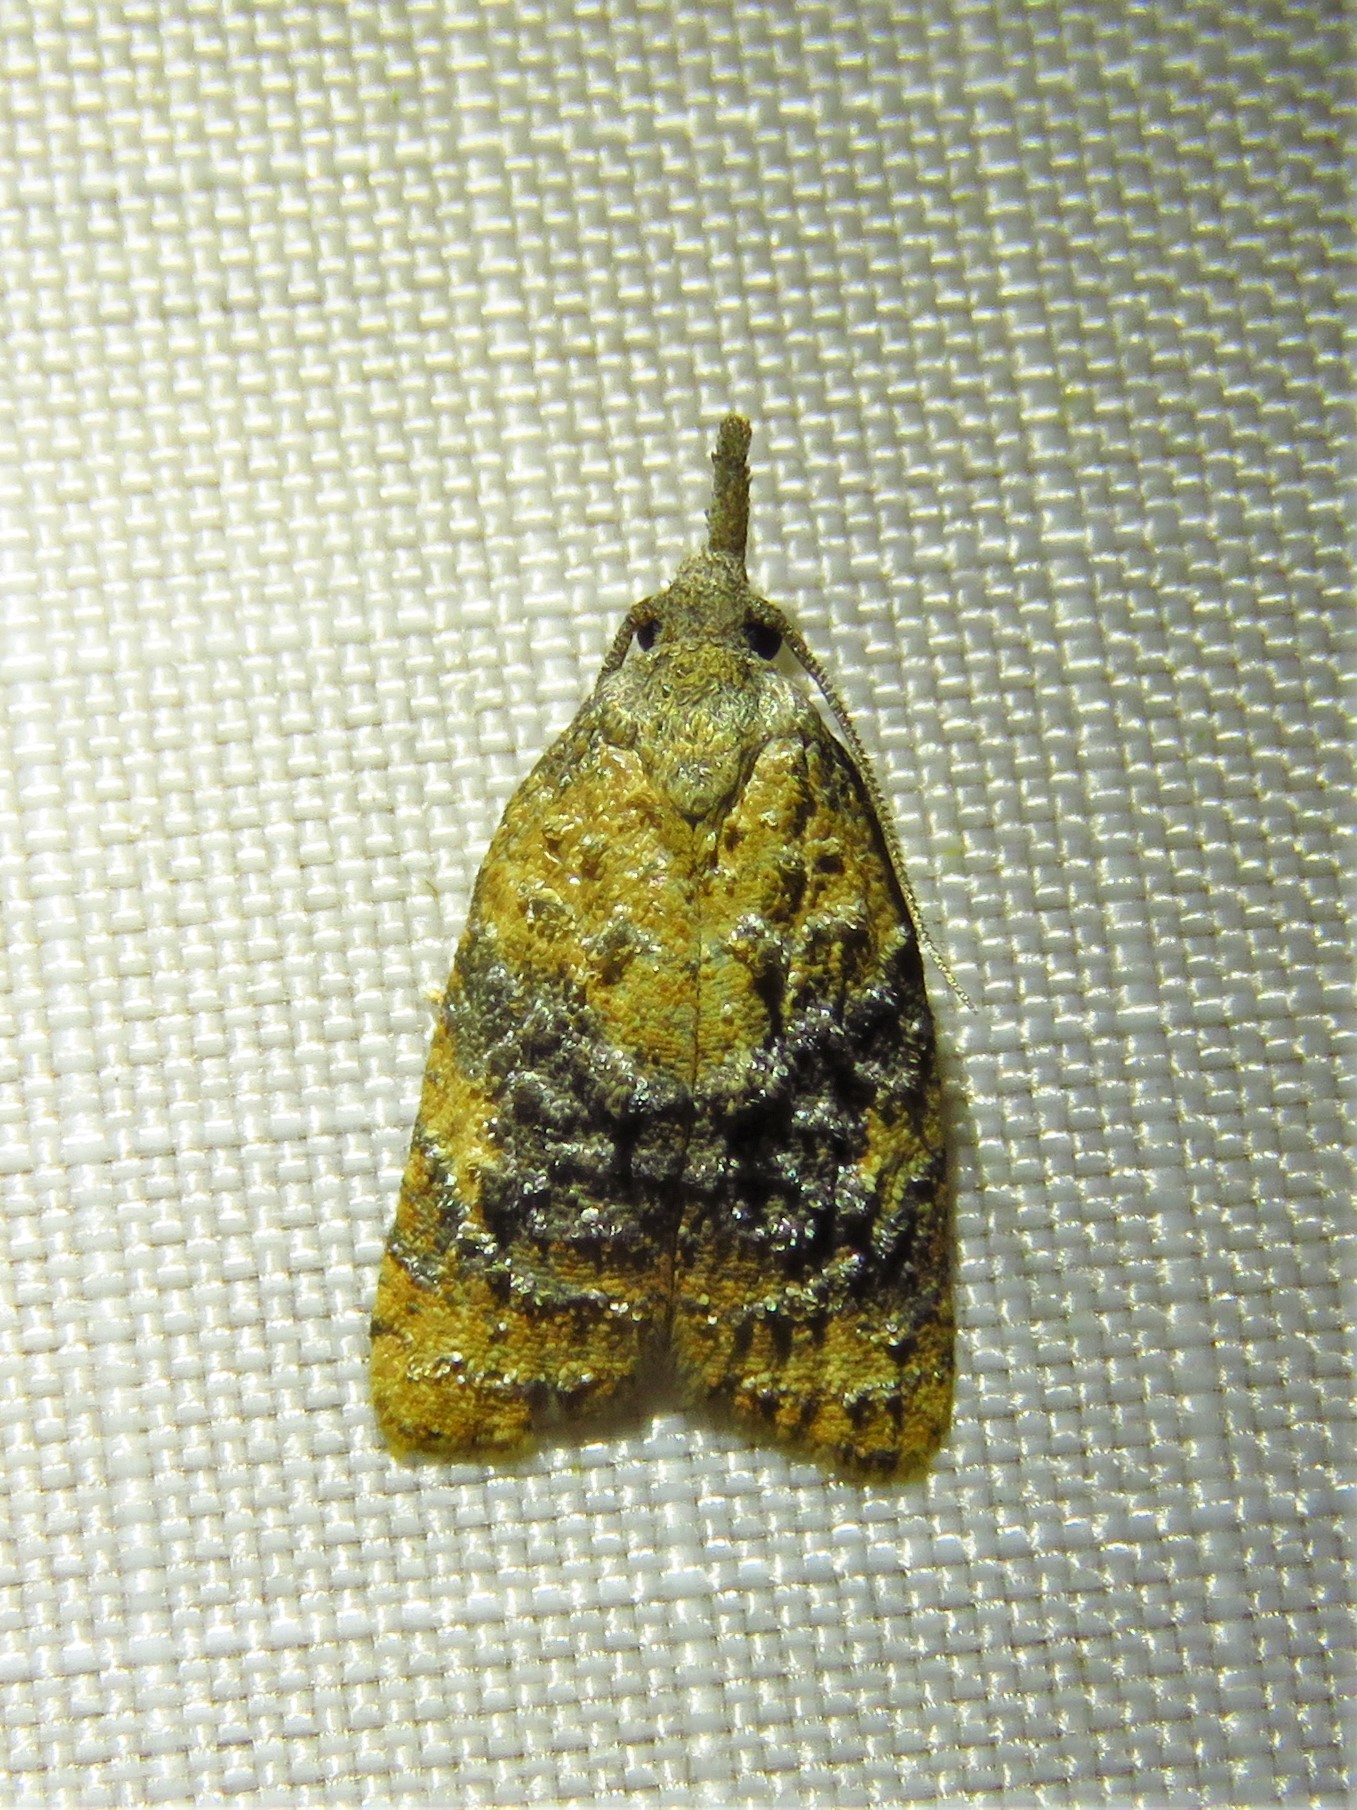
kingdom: Animalia
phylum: Arthropoda
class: Insecta
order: Lepidoptera
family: Tortricidae
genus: Platynota
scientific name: Platynota nigrocervina
